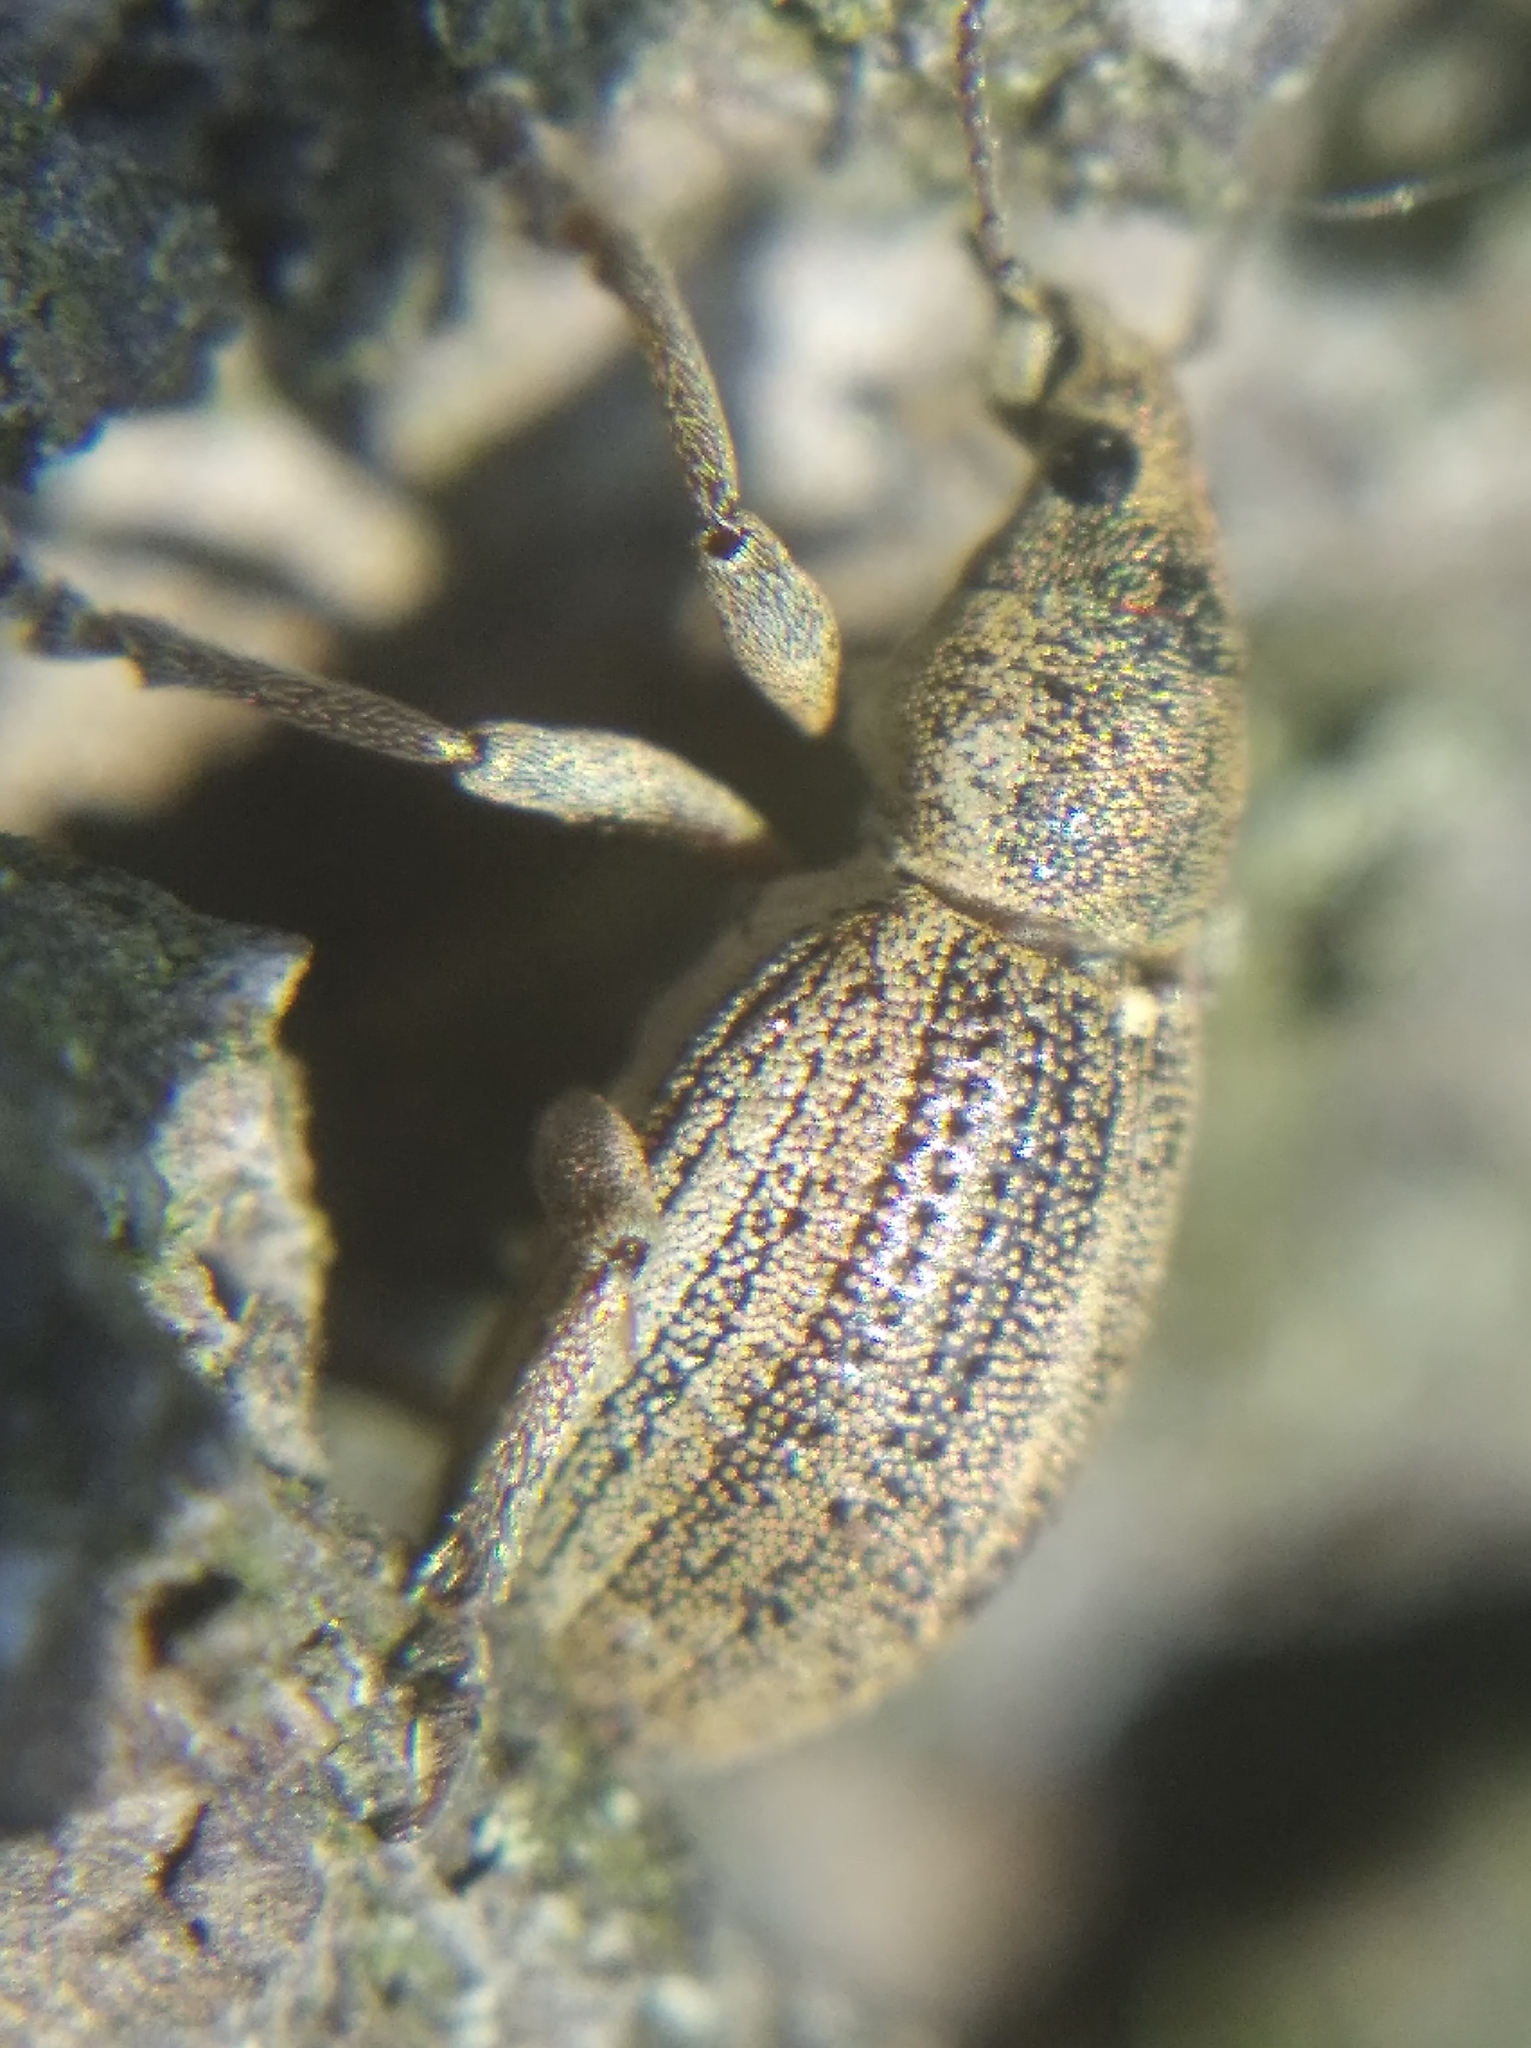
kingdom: Animalia
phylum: Arthropoda
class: Insecta
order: Coleoptera
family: Curculionidae
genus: Sciaphobus
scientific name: Sciaphobus squalidus
